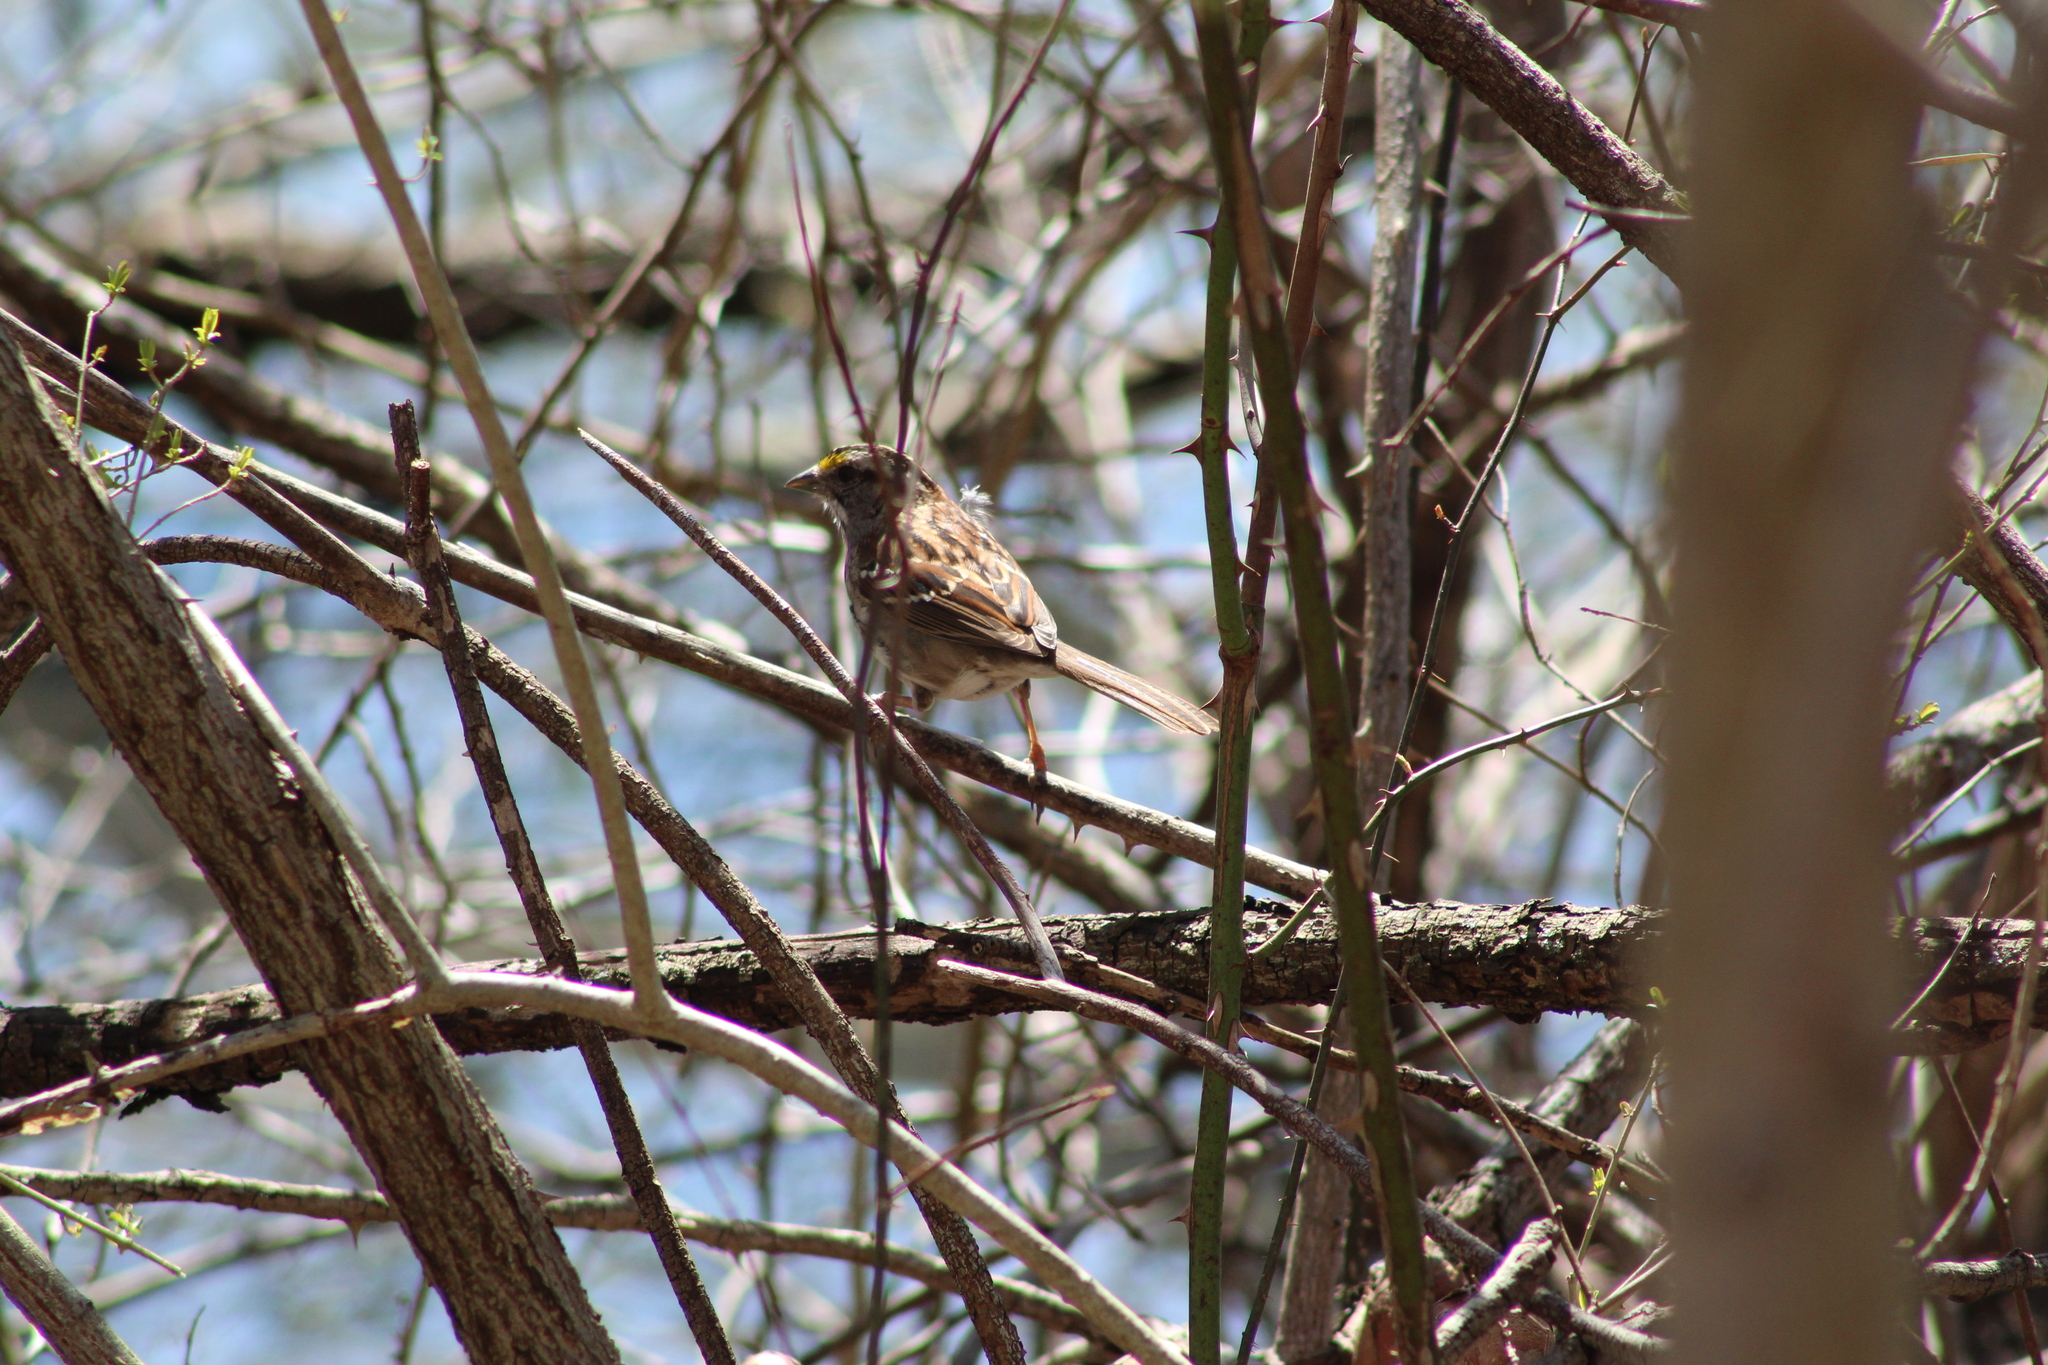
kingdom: Animalia
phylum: Chordata
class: Aves
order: Passeriformes
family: Passerellidae
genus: Zonotrichia
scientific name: Zonotrichia albicollis
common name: White-throated sparrow
